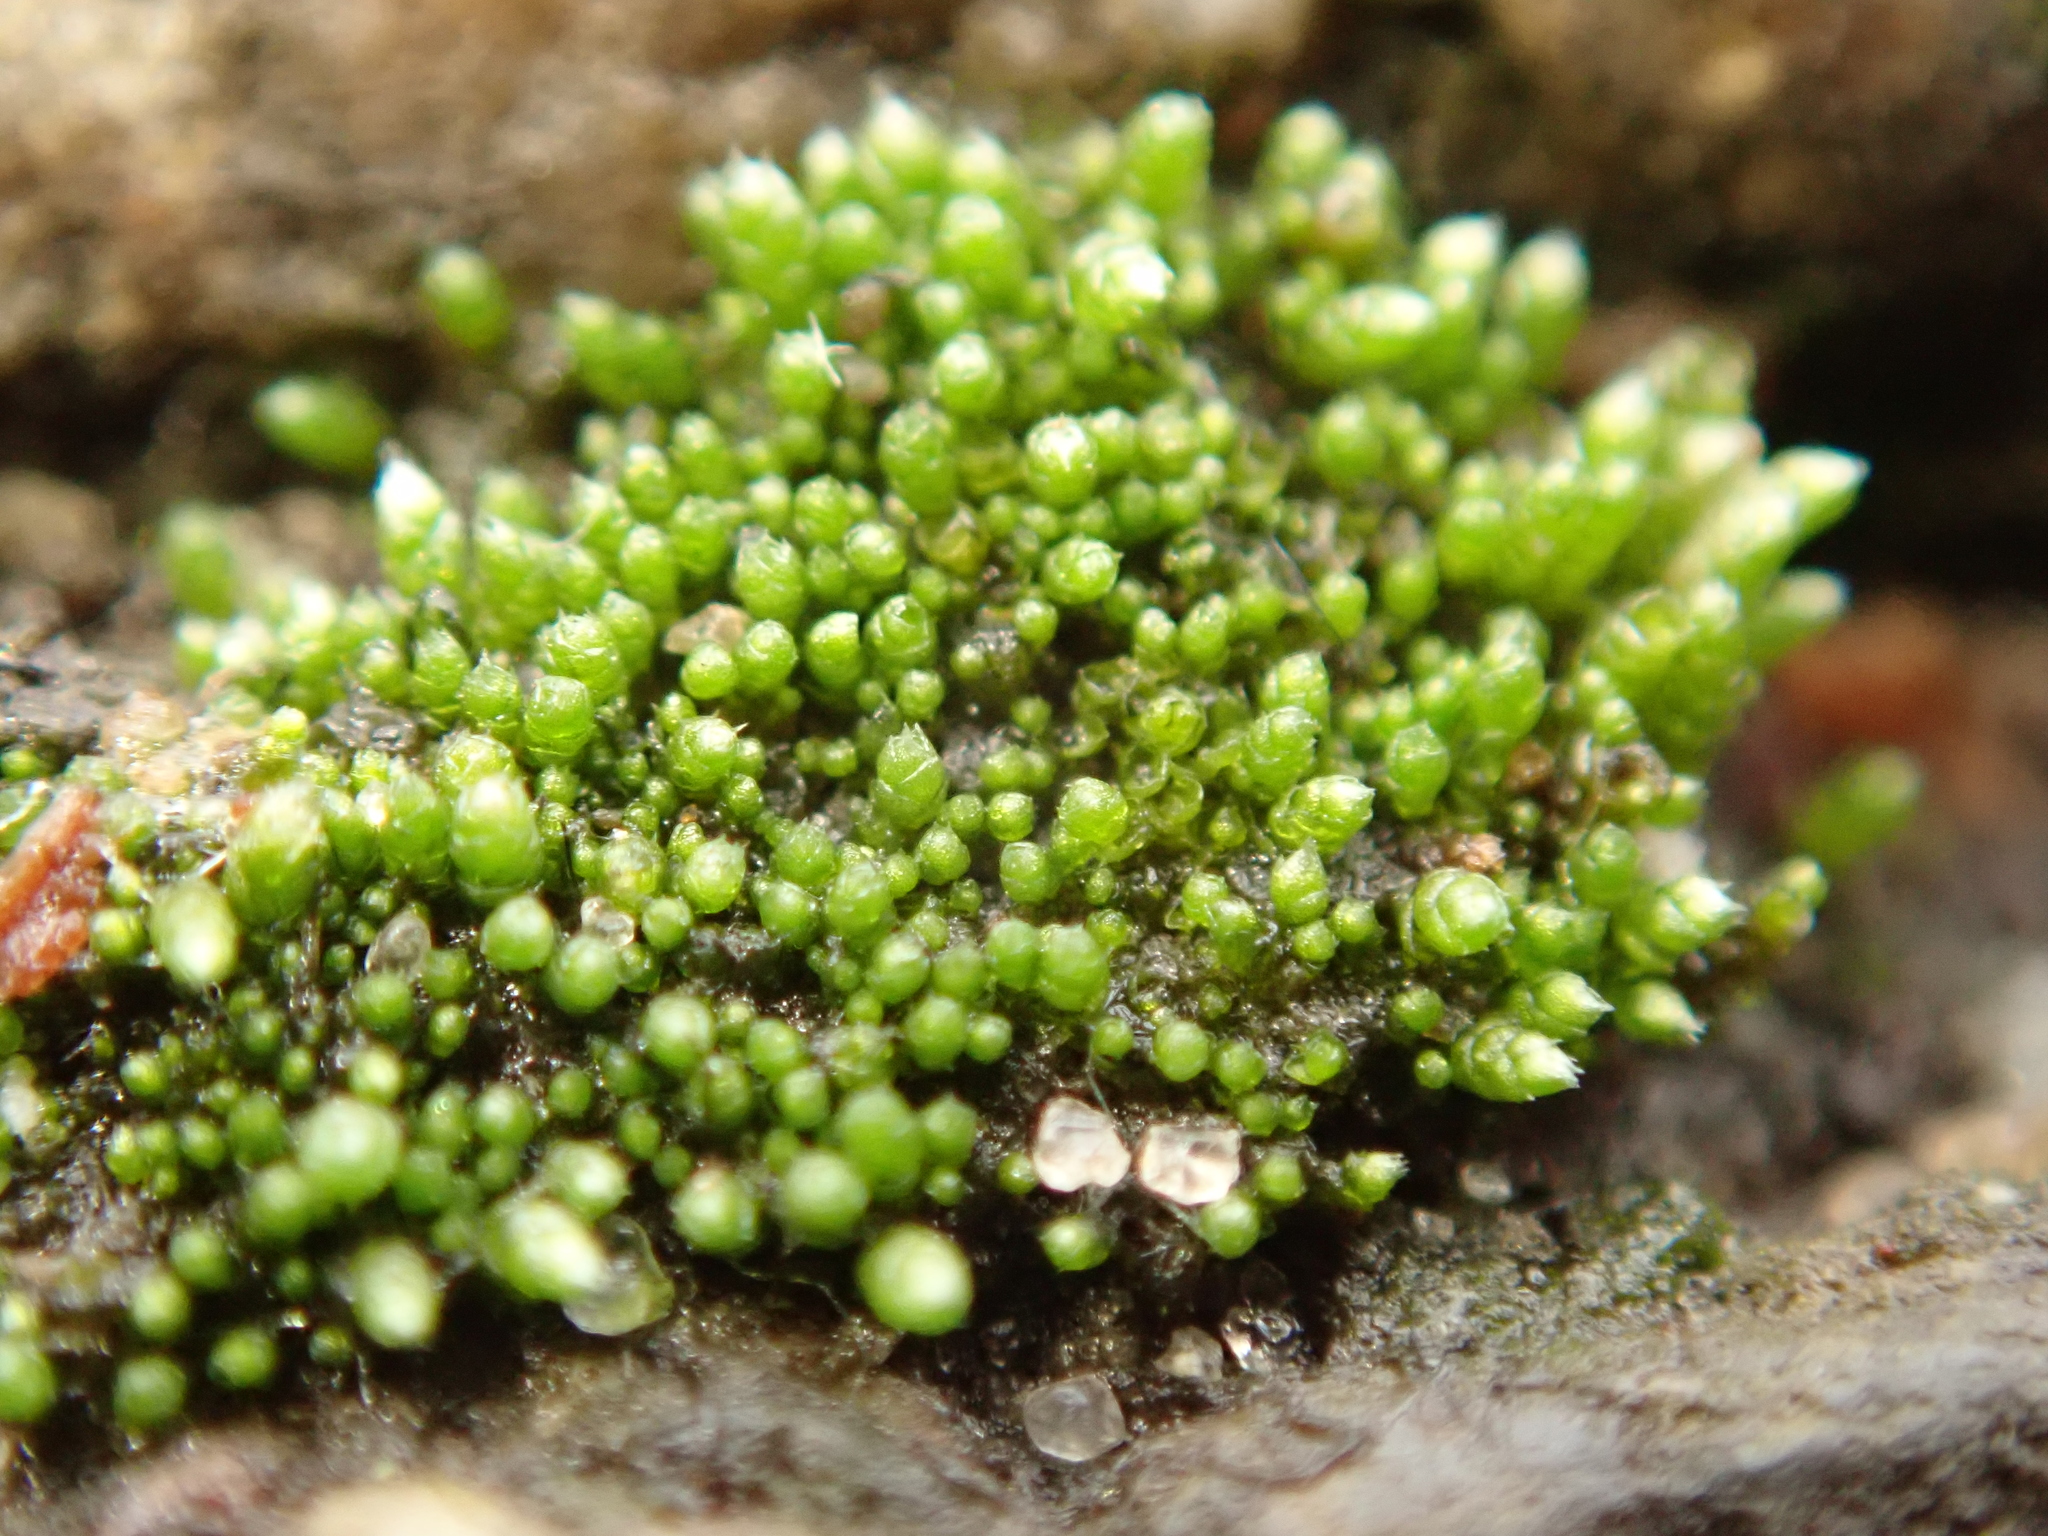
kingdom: Plantae
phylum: Bryophyta
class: Bryopsida
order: Bryales
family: Bryaceae
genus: Bryum
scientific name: Bryum argenteum
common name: Silver-moss
